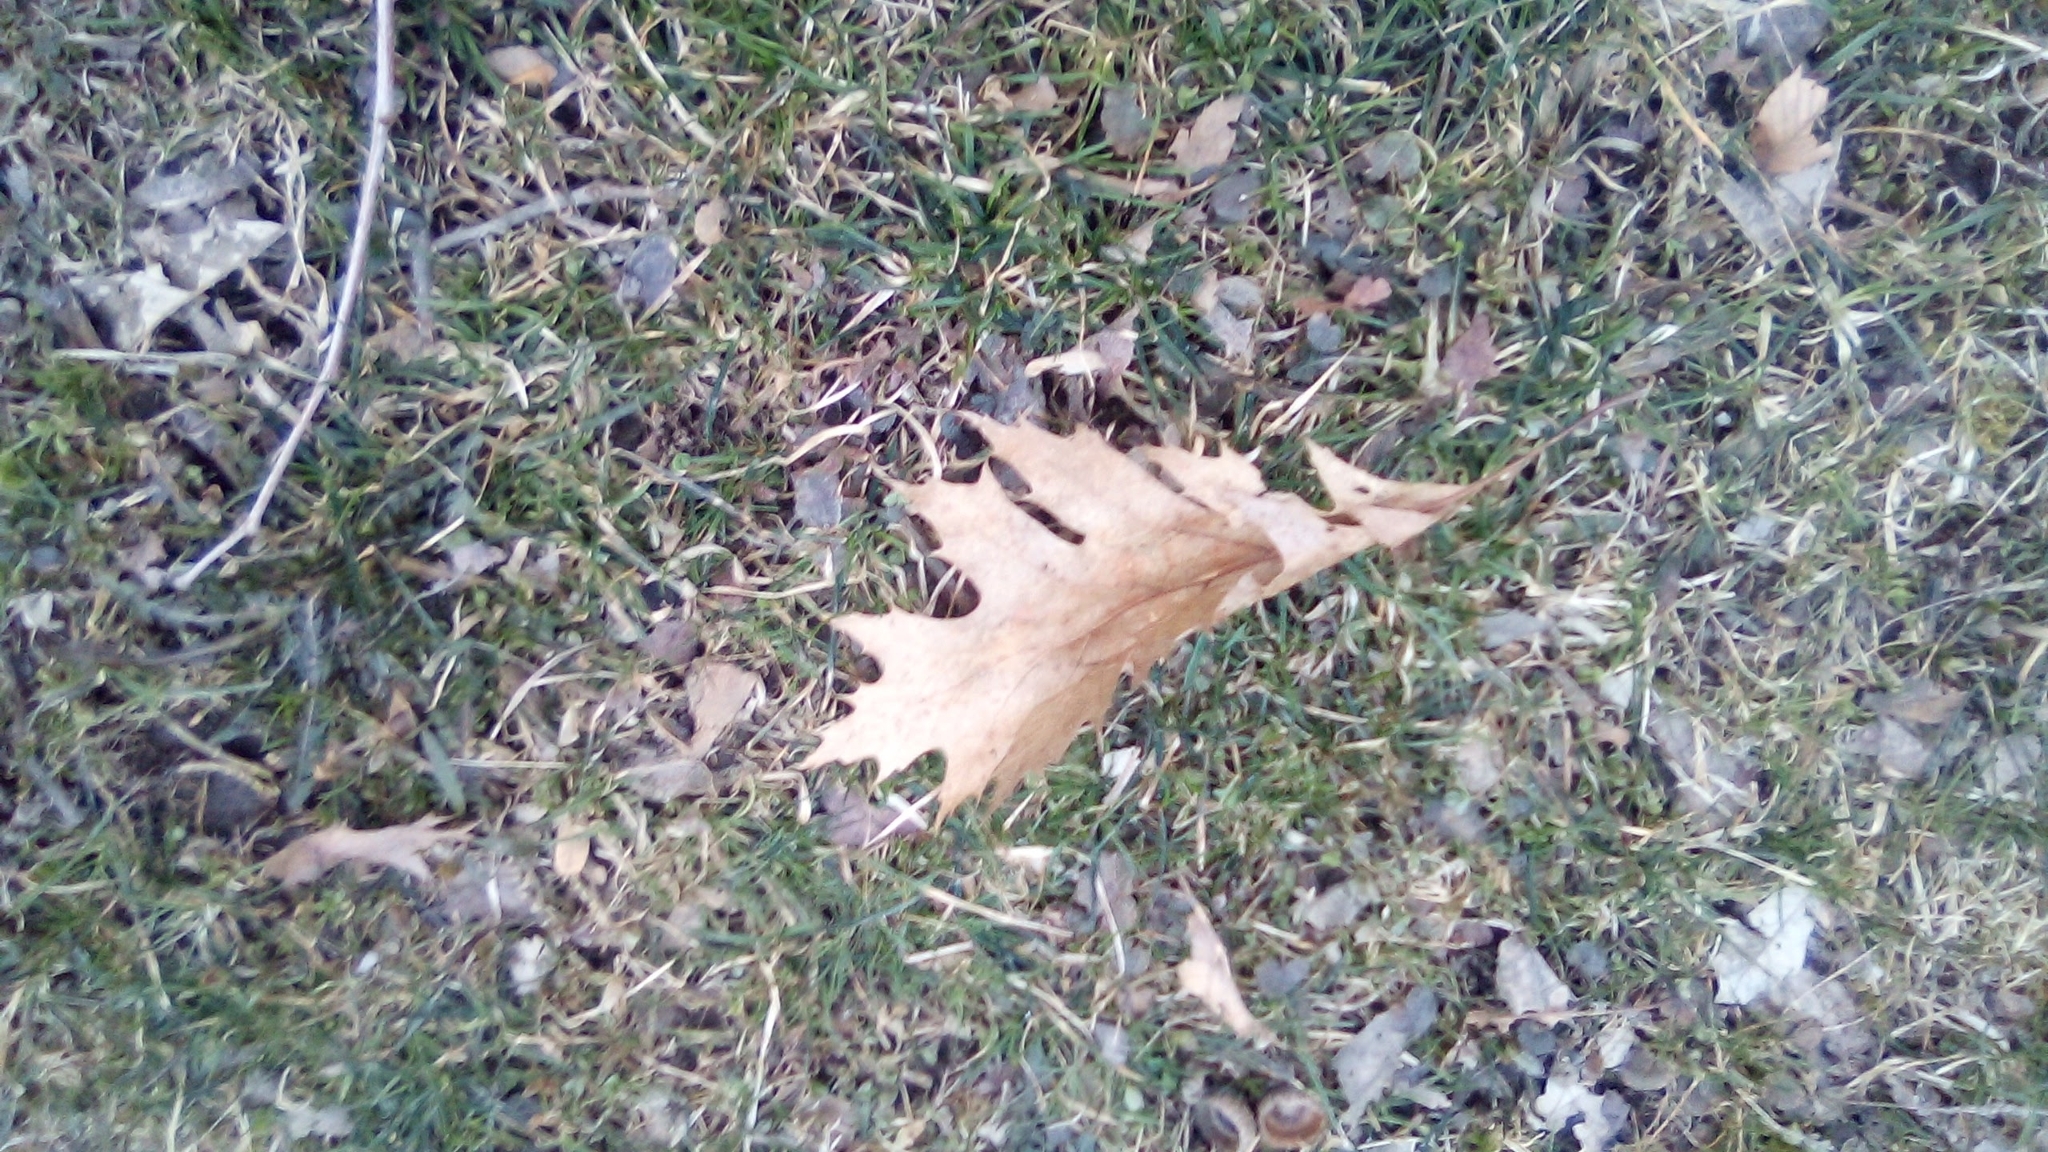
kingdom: Plantae
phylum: Tracheophyta
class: Magnoliopsida
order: Fagales
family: Fagaceae
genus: Quercus
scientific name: Quercus rubra
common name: Red oak
